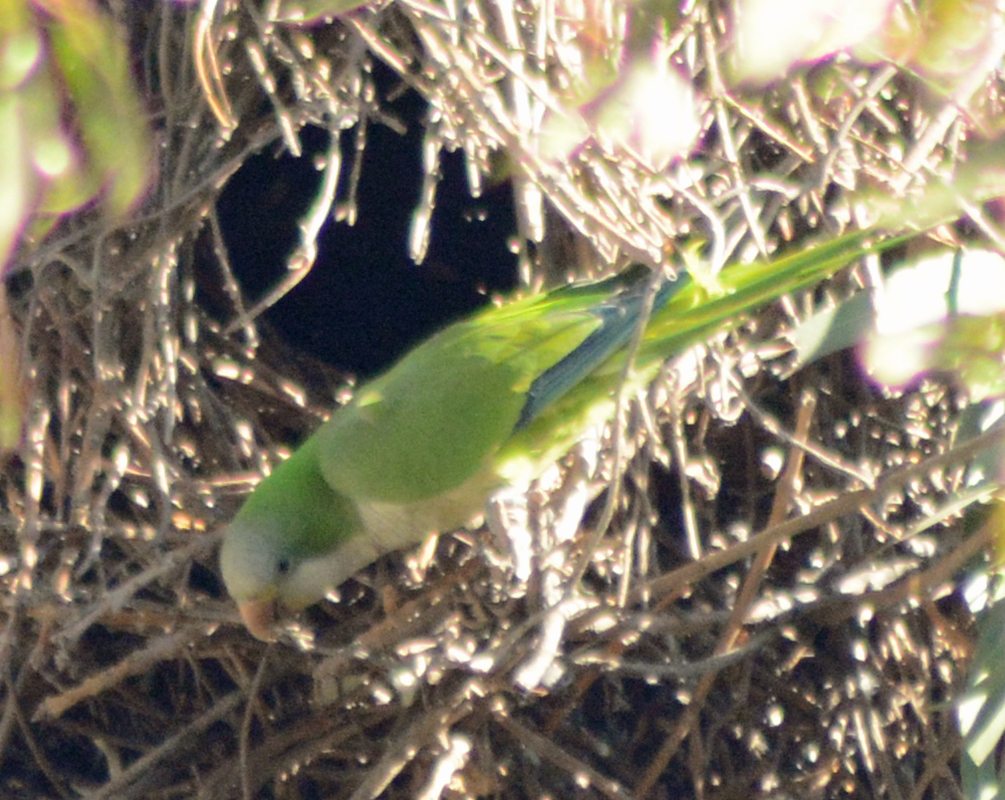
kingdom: Animalia
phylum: Chordata
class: Aves
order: Psittaciformes
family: Psittacidae
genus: Myiopsitta
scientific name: Myiopsitta monachus
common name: Monk parakeet
